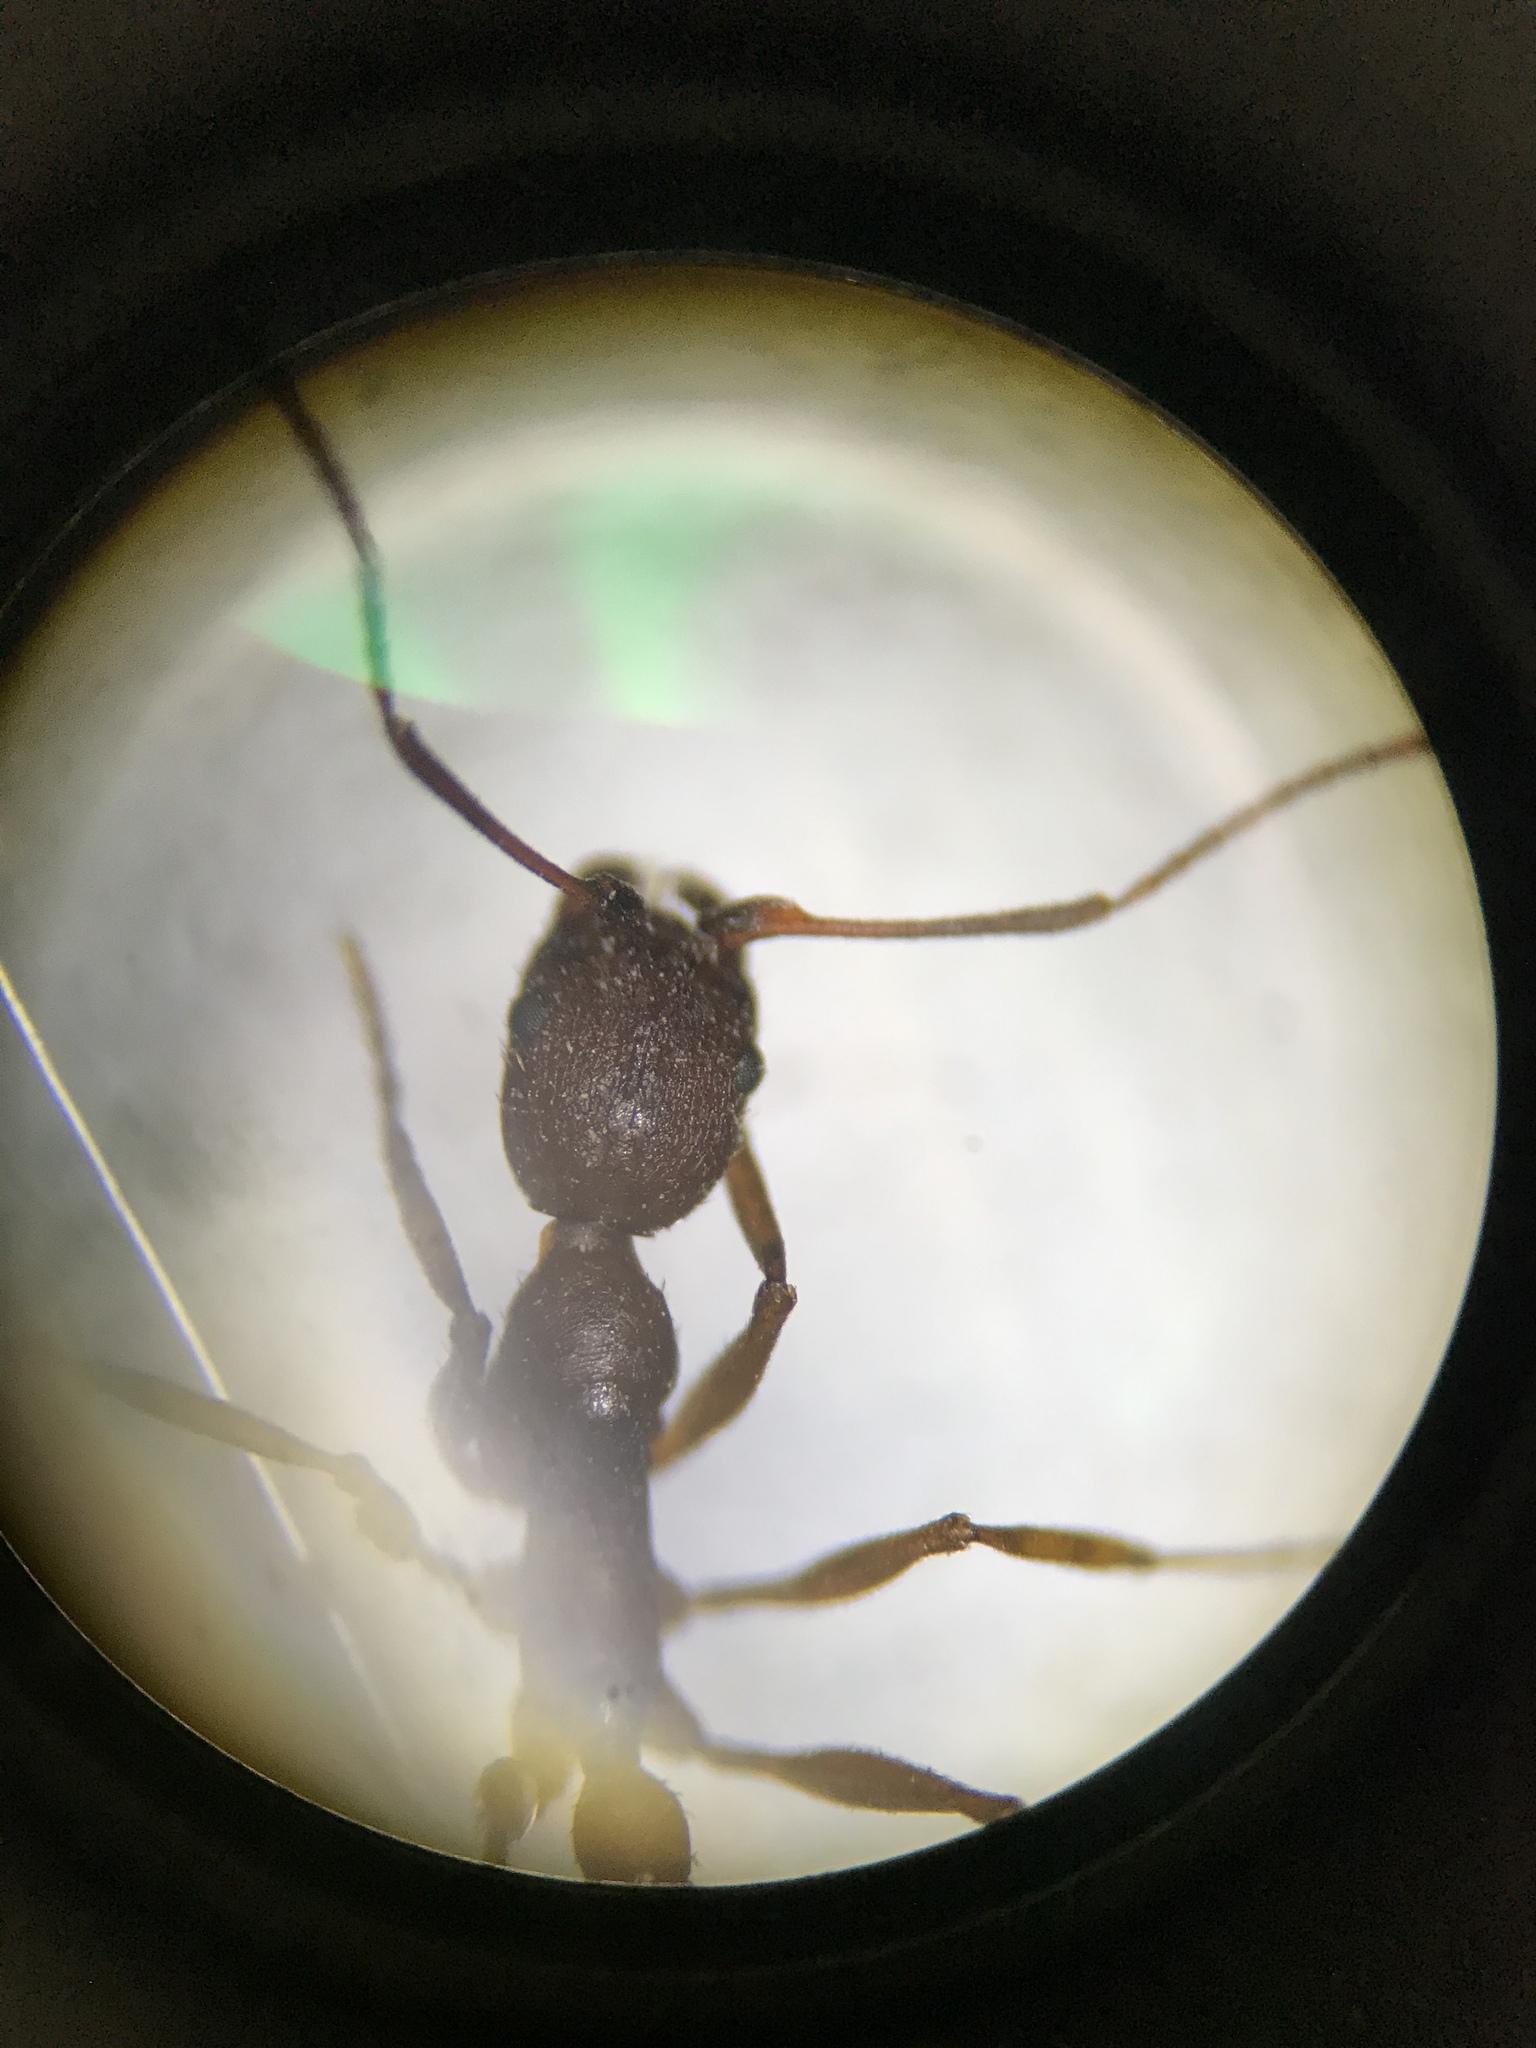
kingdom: Animalia
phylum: Arthropoda
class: Insecta
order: Hymenoptera
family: Formicidae
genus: Aphaenogaster
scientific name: Aphaenogaster ashmeadi
